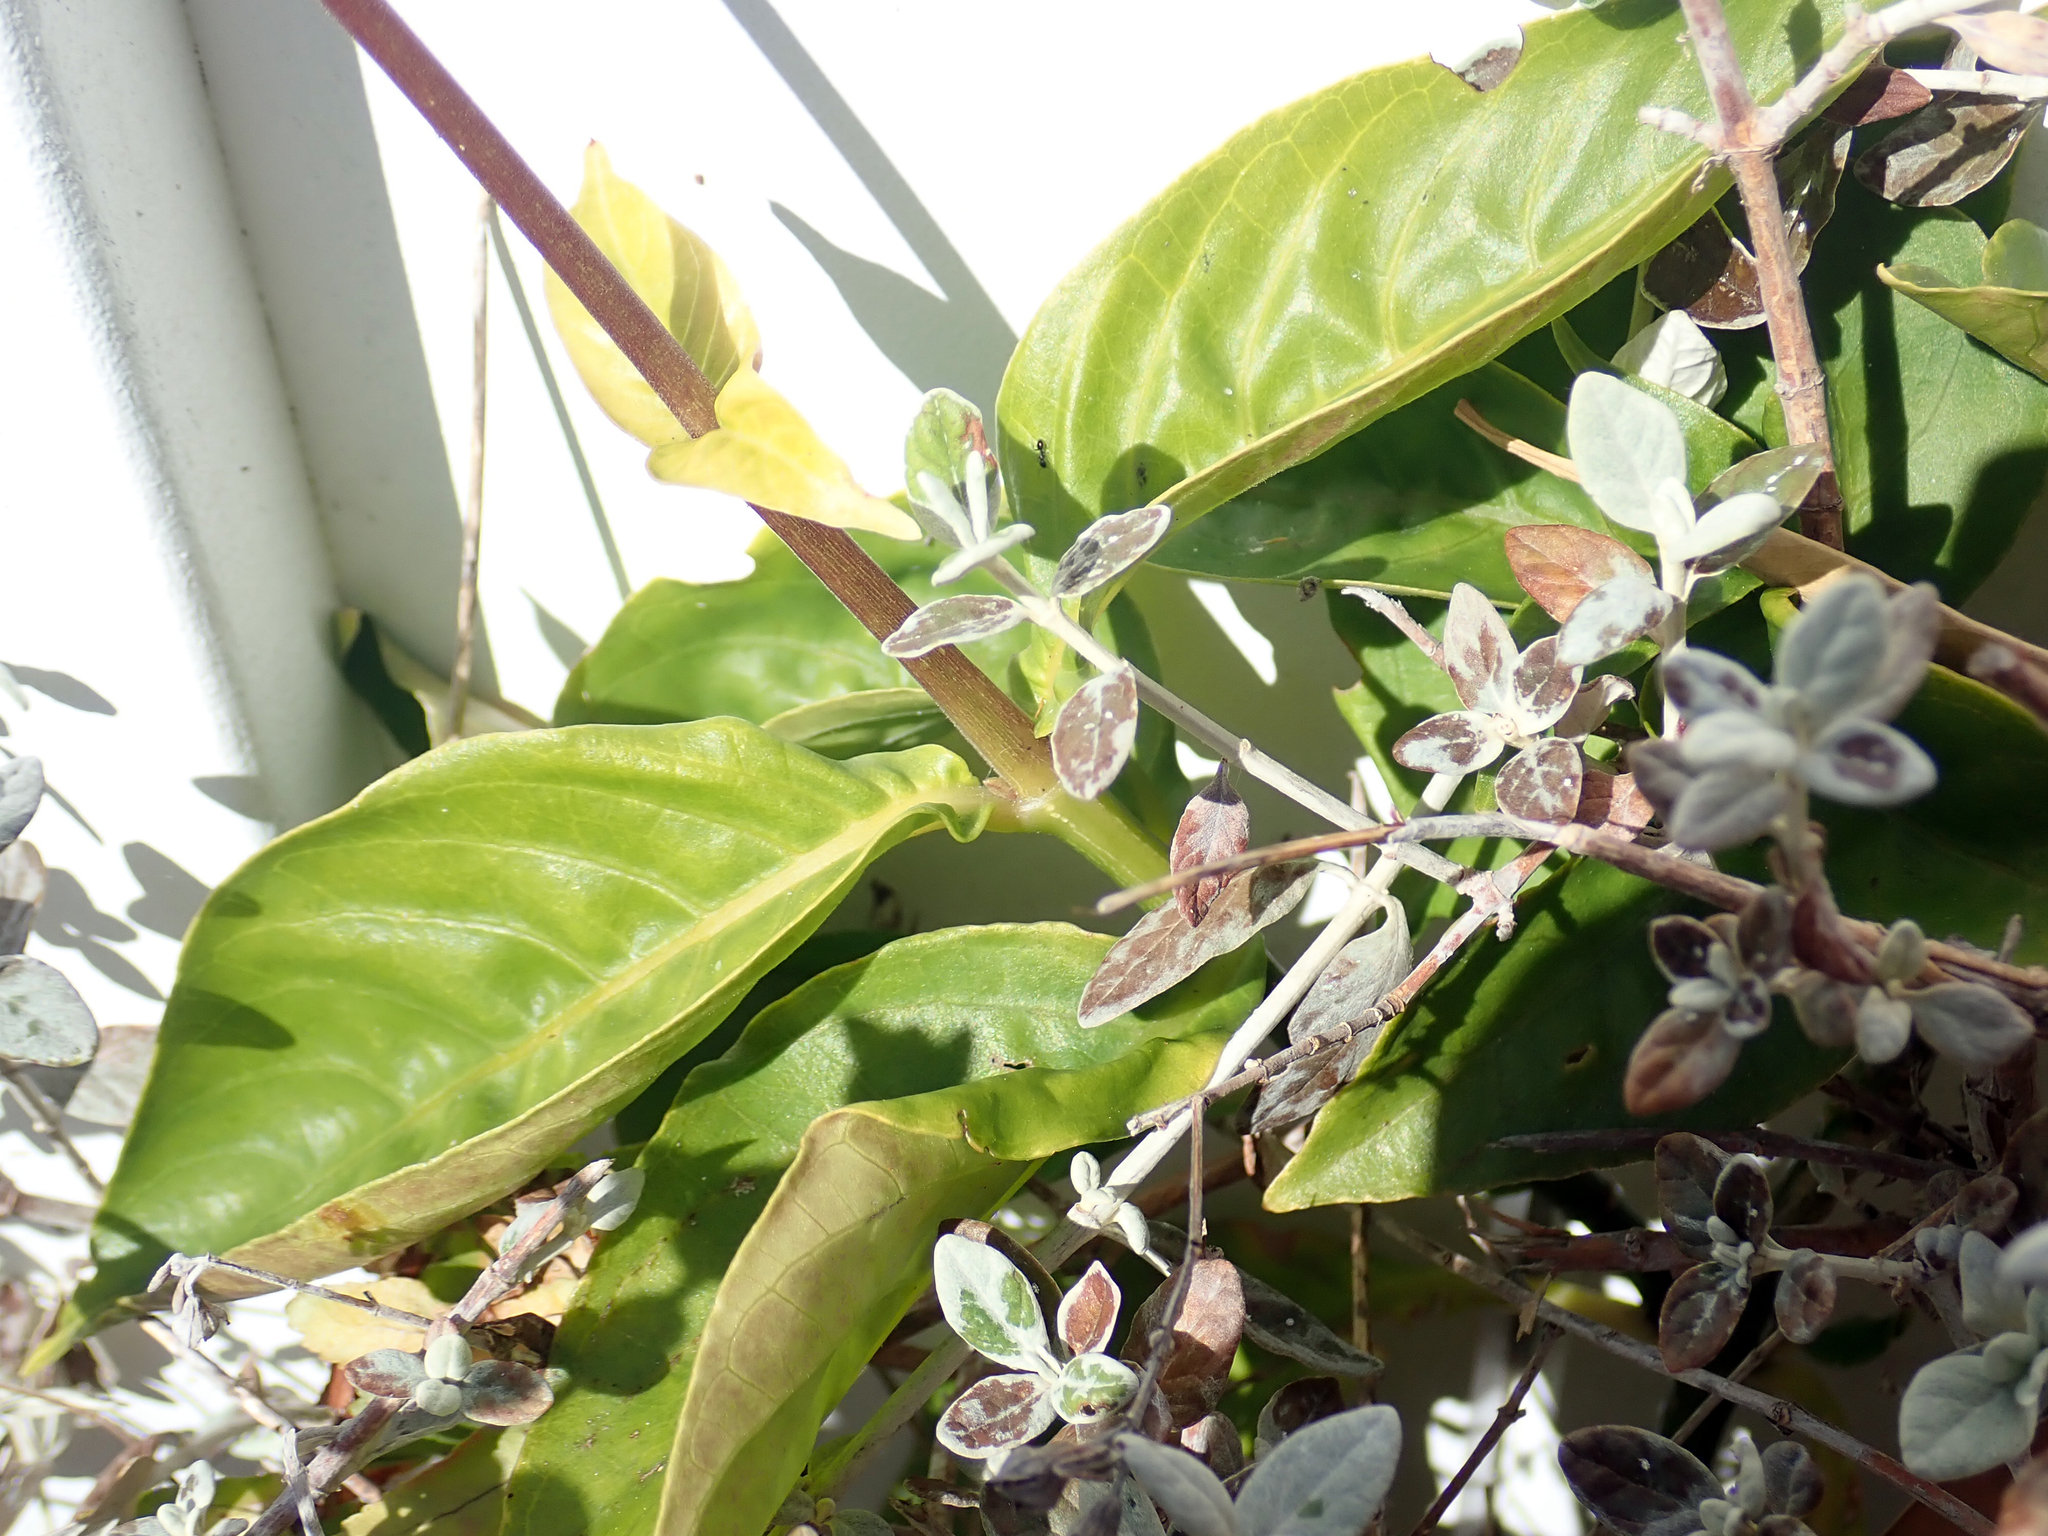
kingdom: Plantae
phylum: Tracheophyta
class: Magnoliopsida
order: Lamiales
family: Acanthaceae
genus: Odontonema
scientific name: Odontonema tubaeforme
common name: Firespike
